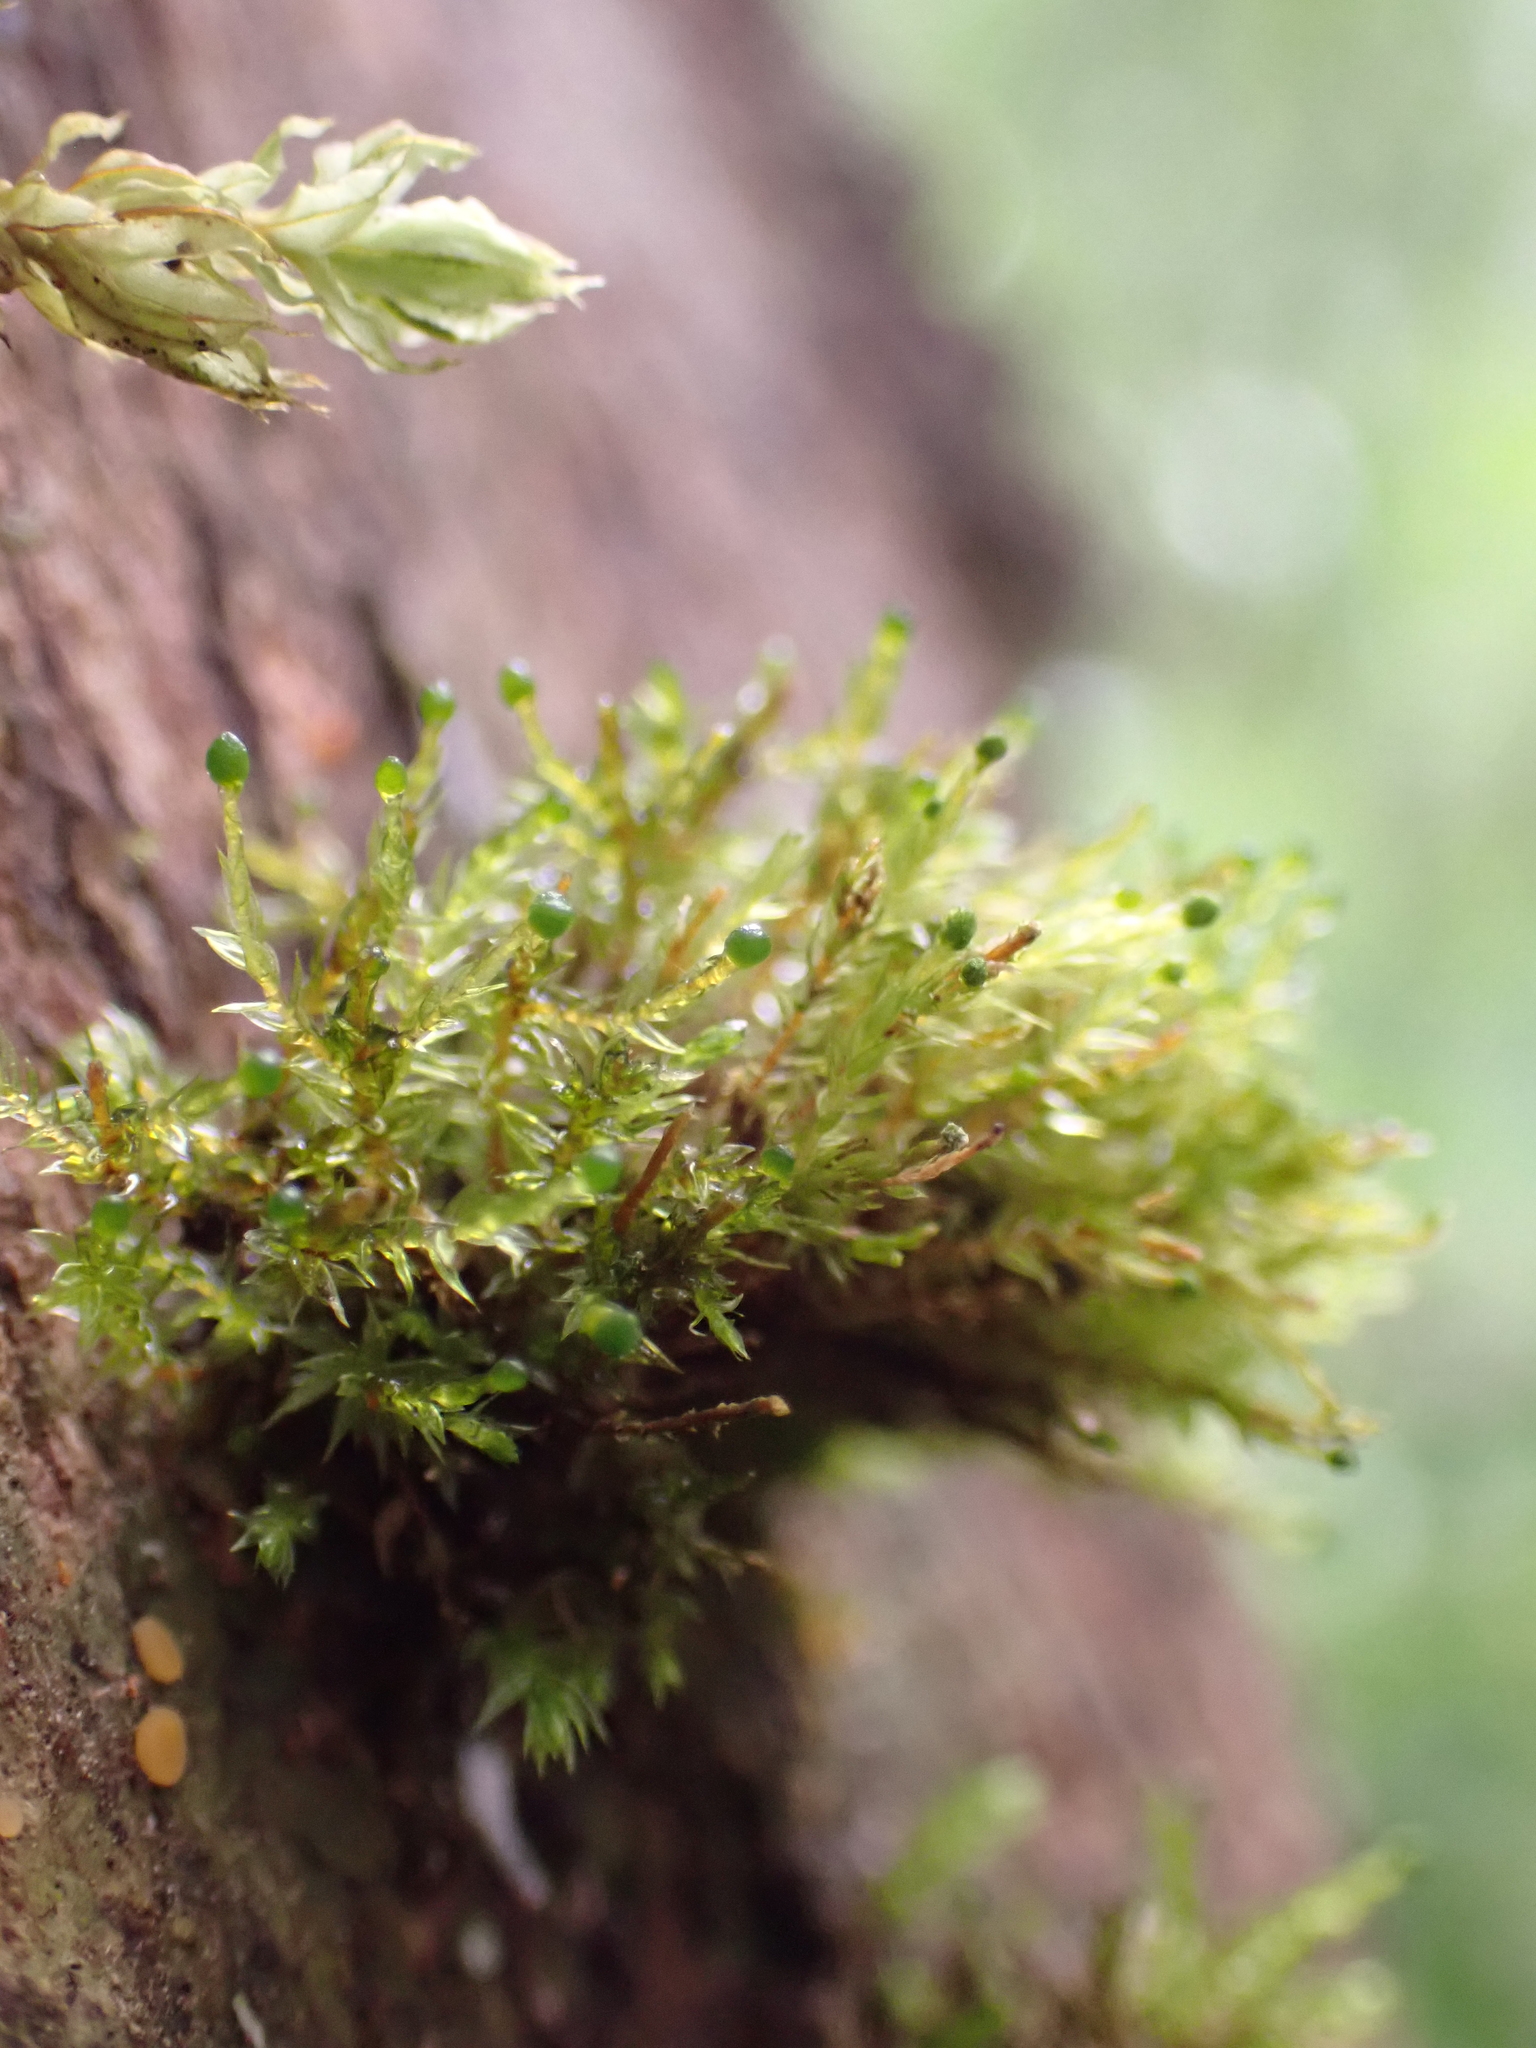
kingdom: Plantae
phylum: Bryophyta
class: Bryopsida
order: Ptychomniales
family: Ptychomniaceae
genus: Tetraphidopsis
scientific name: Tetraphidopsis pusilla
